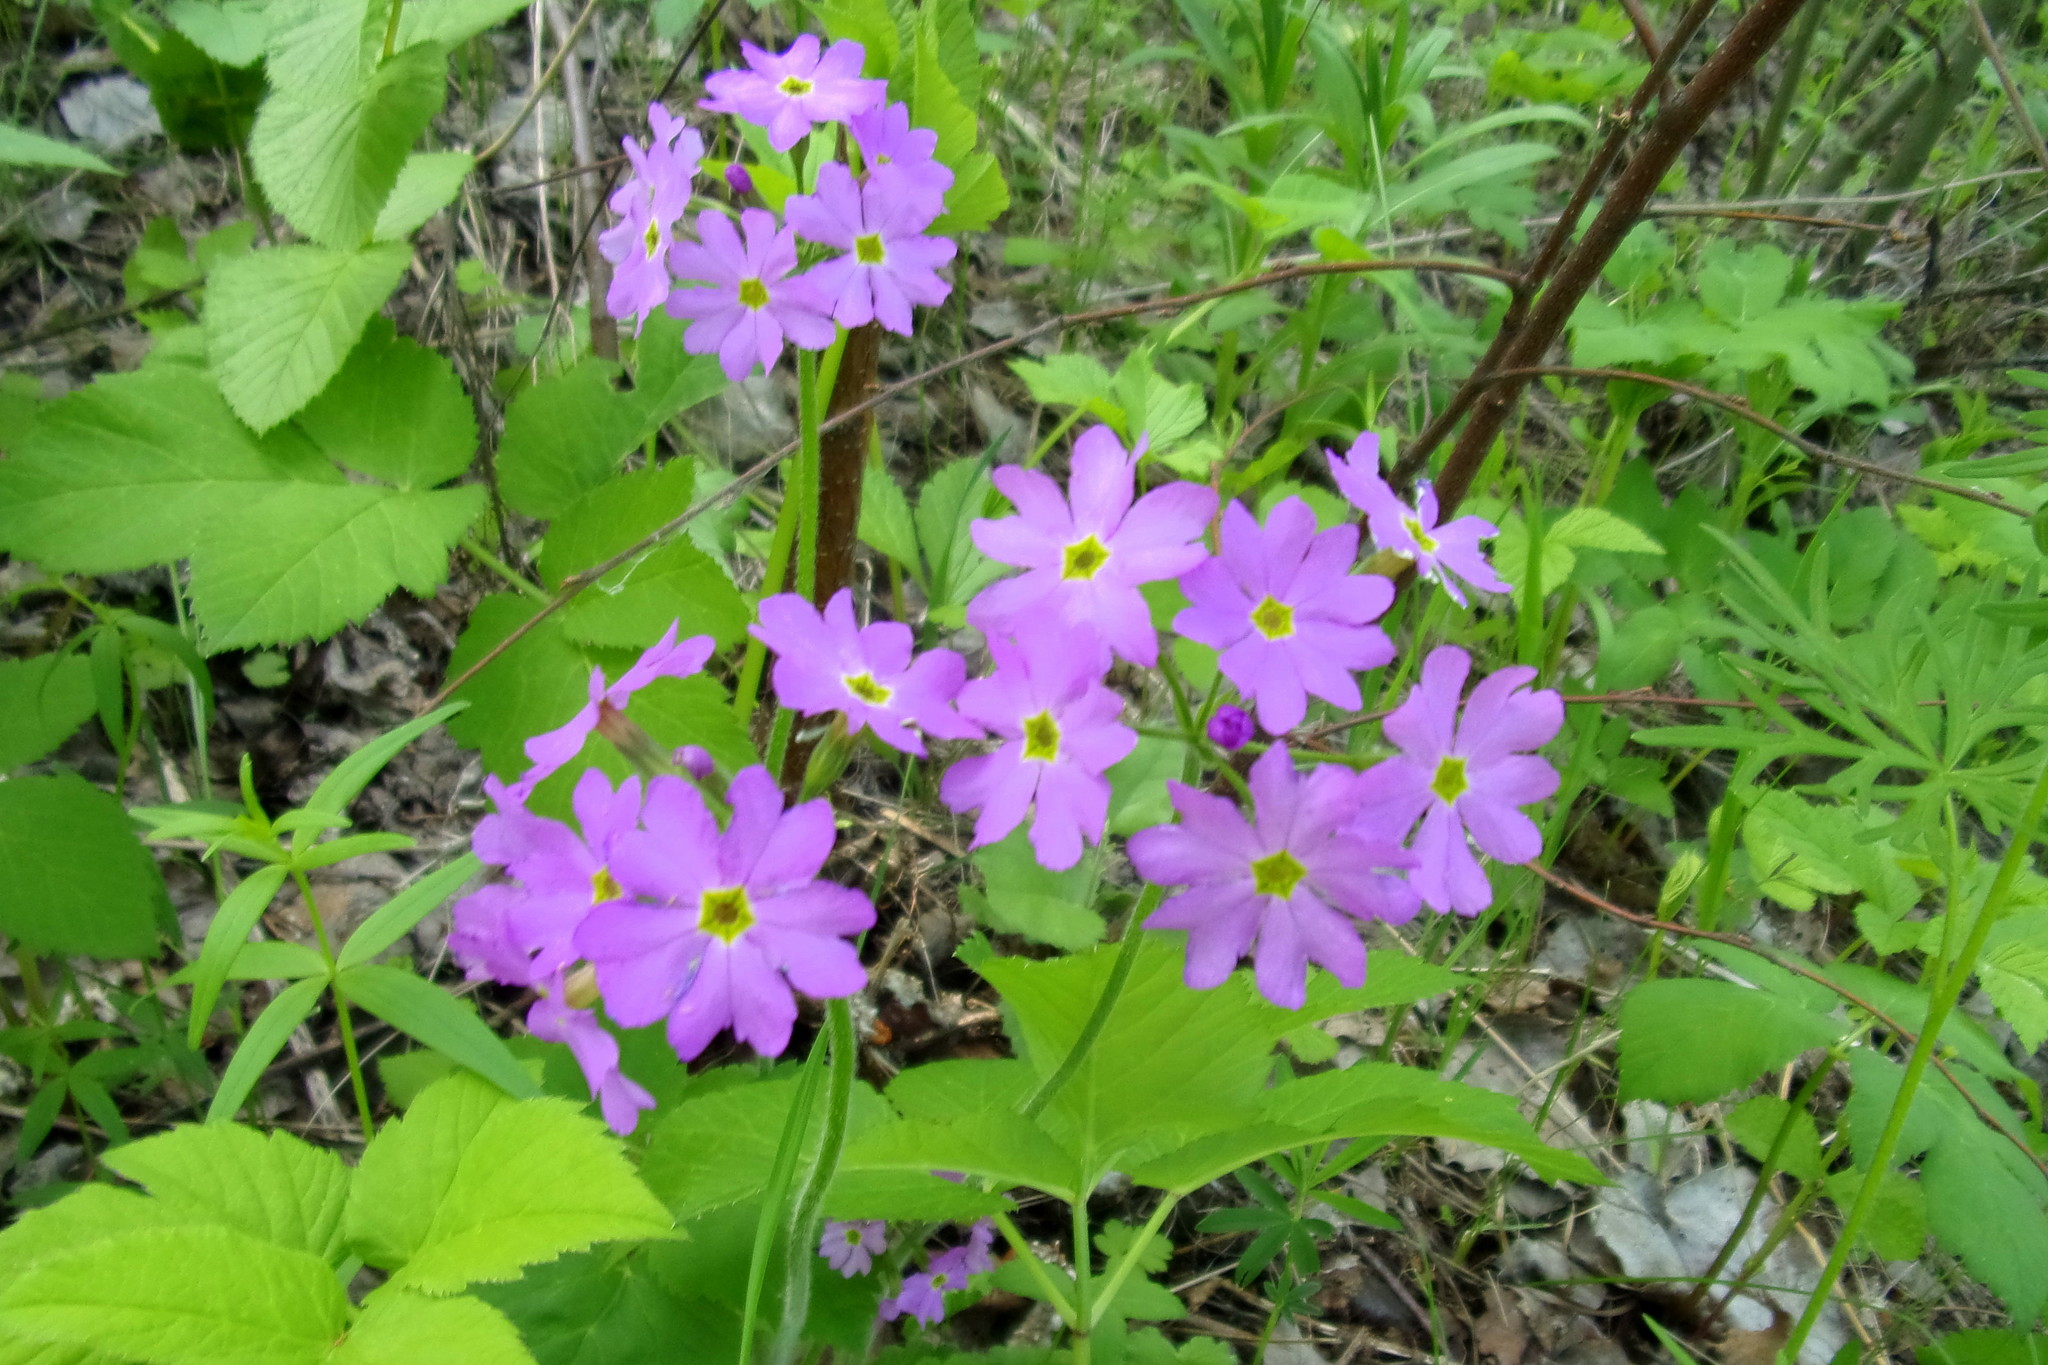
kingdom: Plantae
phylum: Tracheophyta
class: Magnoliopsida
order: Ericales
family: Primulaceae
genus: Primula
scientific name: Primula cortusoides
